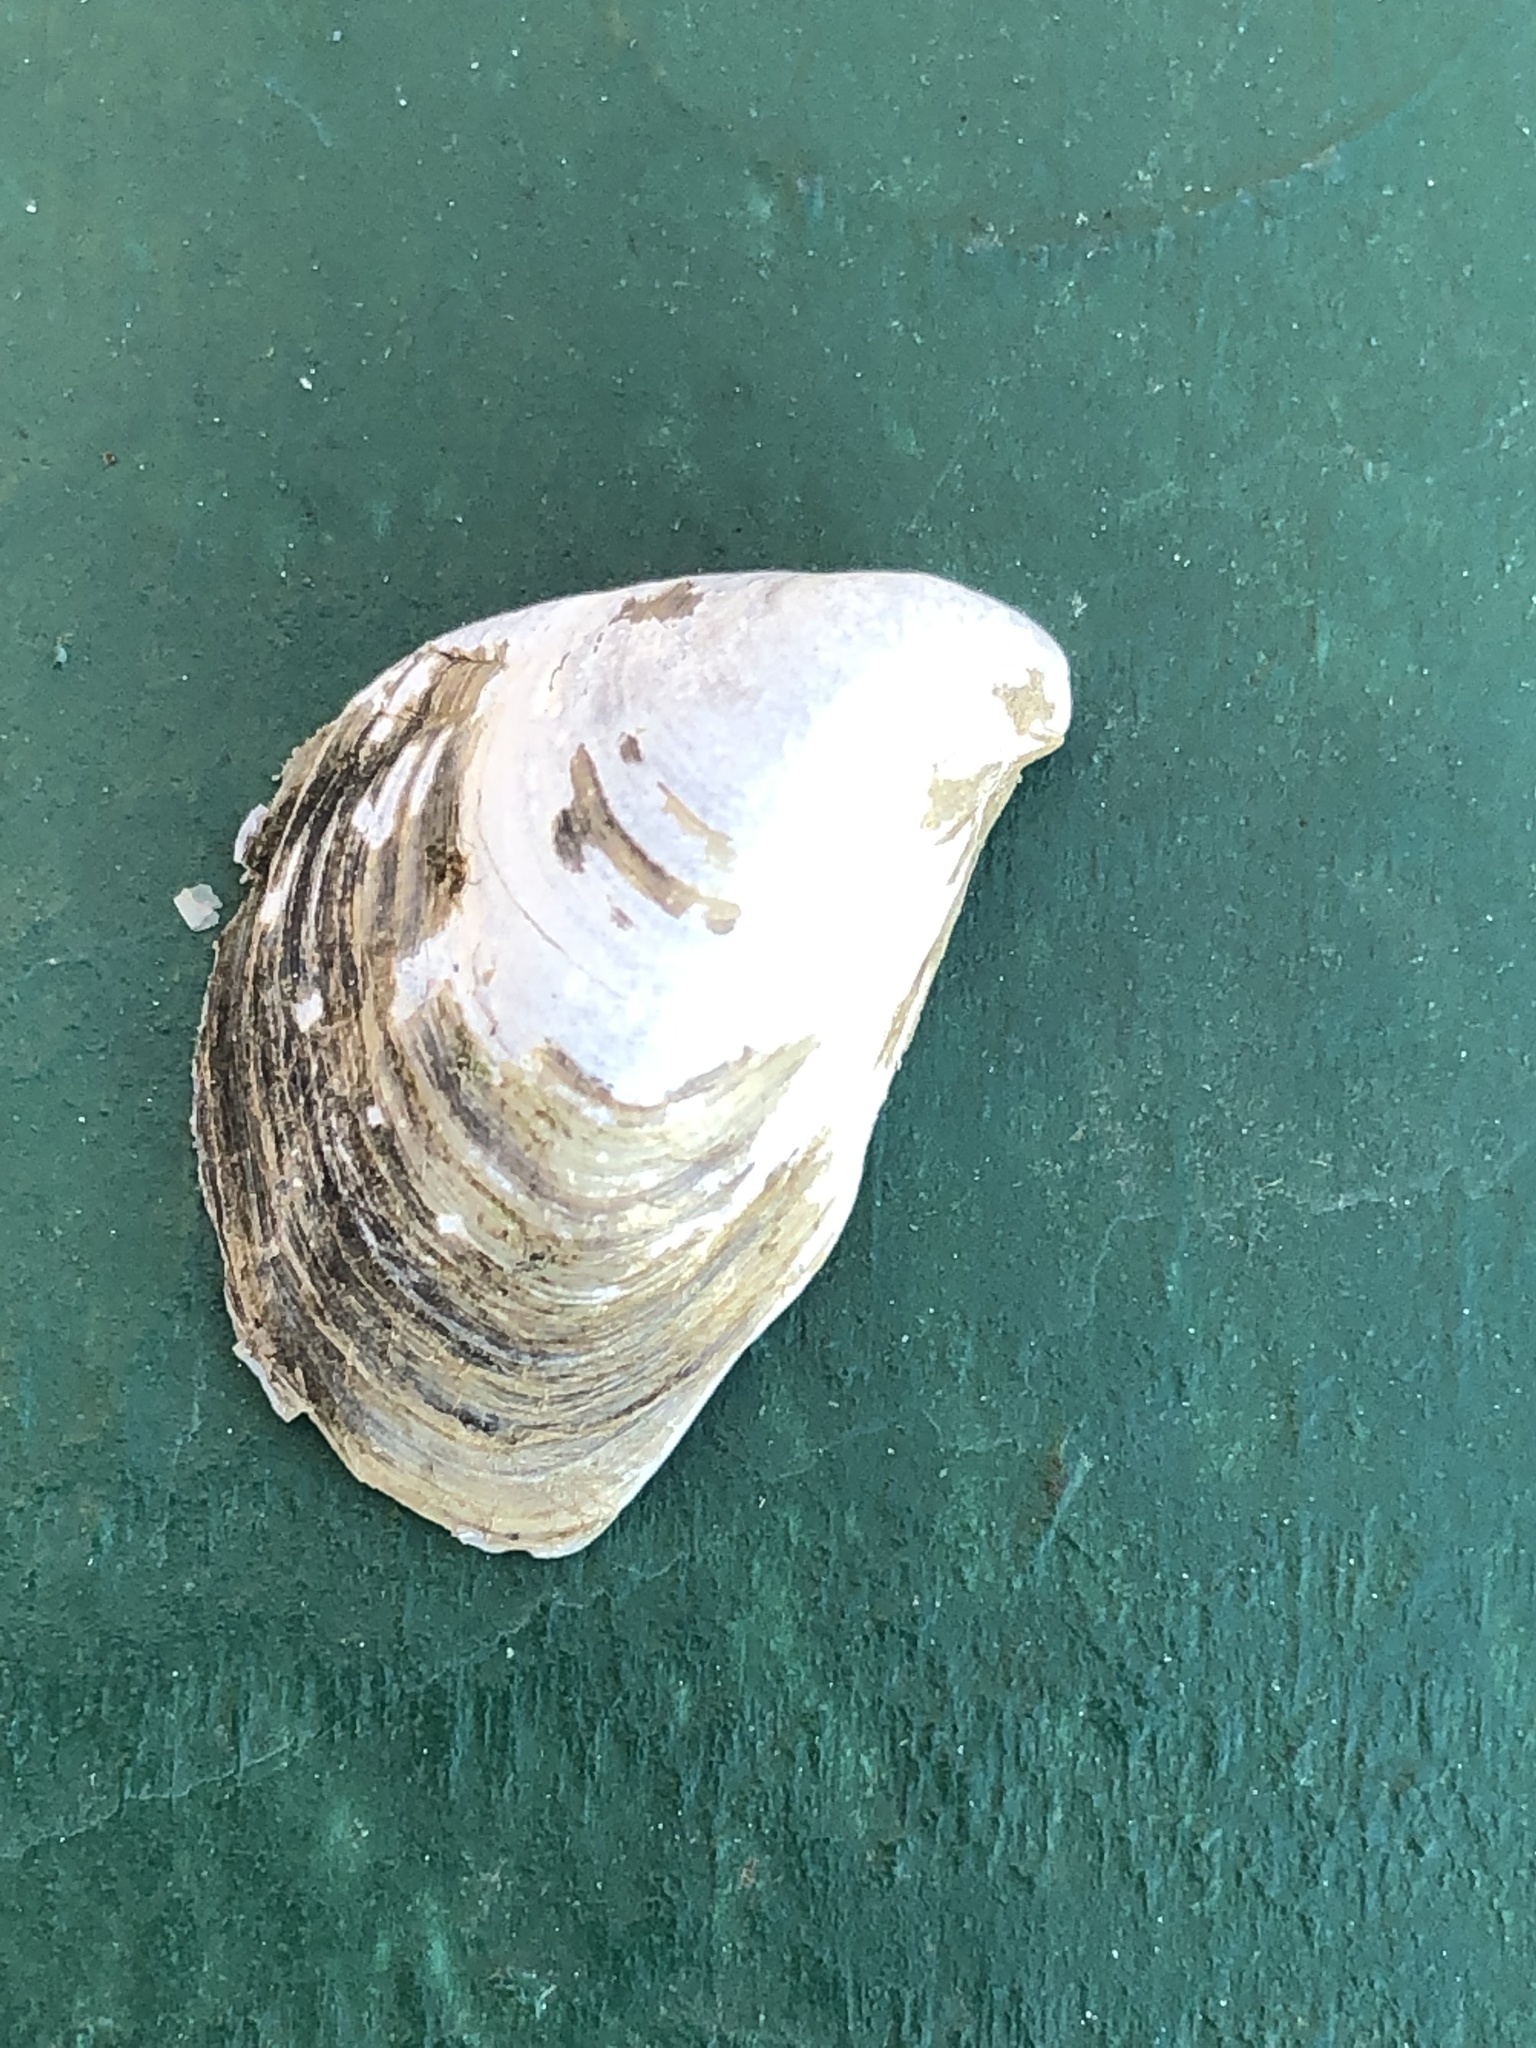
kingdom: Animalia
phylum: Mollusca
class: Bivalvia
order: Myida
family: Dreissenidae
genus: Dreissena
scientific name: Dreissena bugensis
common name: Quagga mussel
